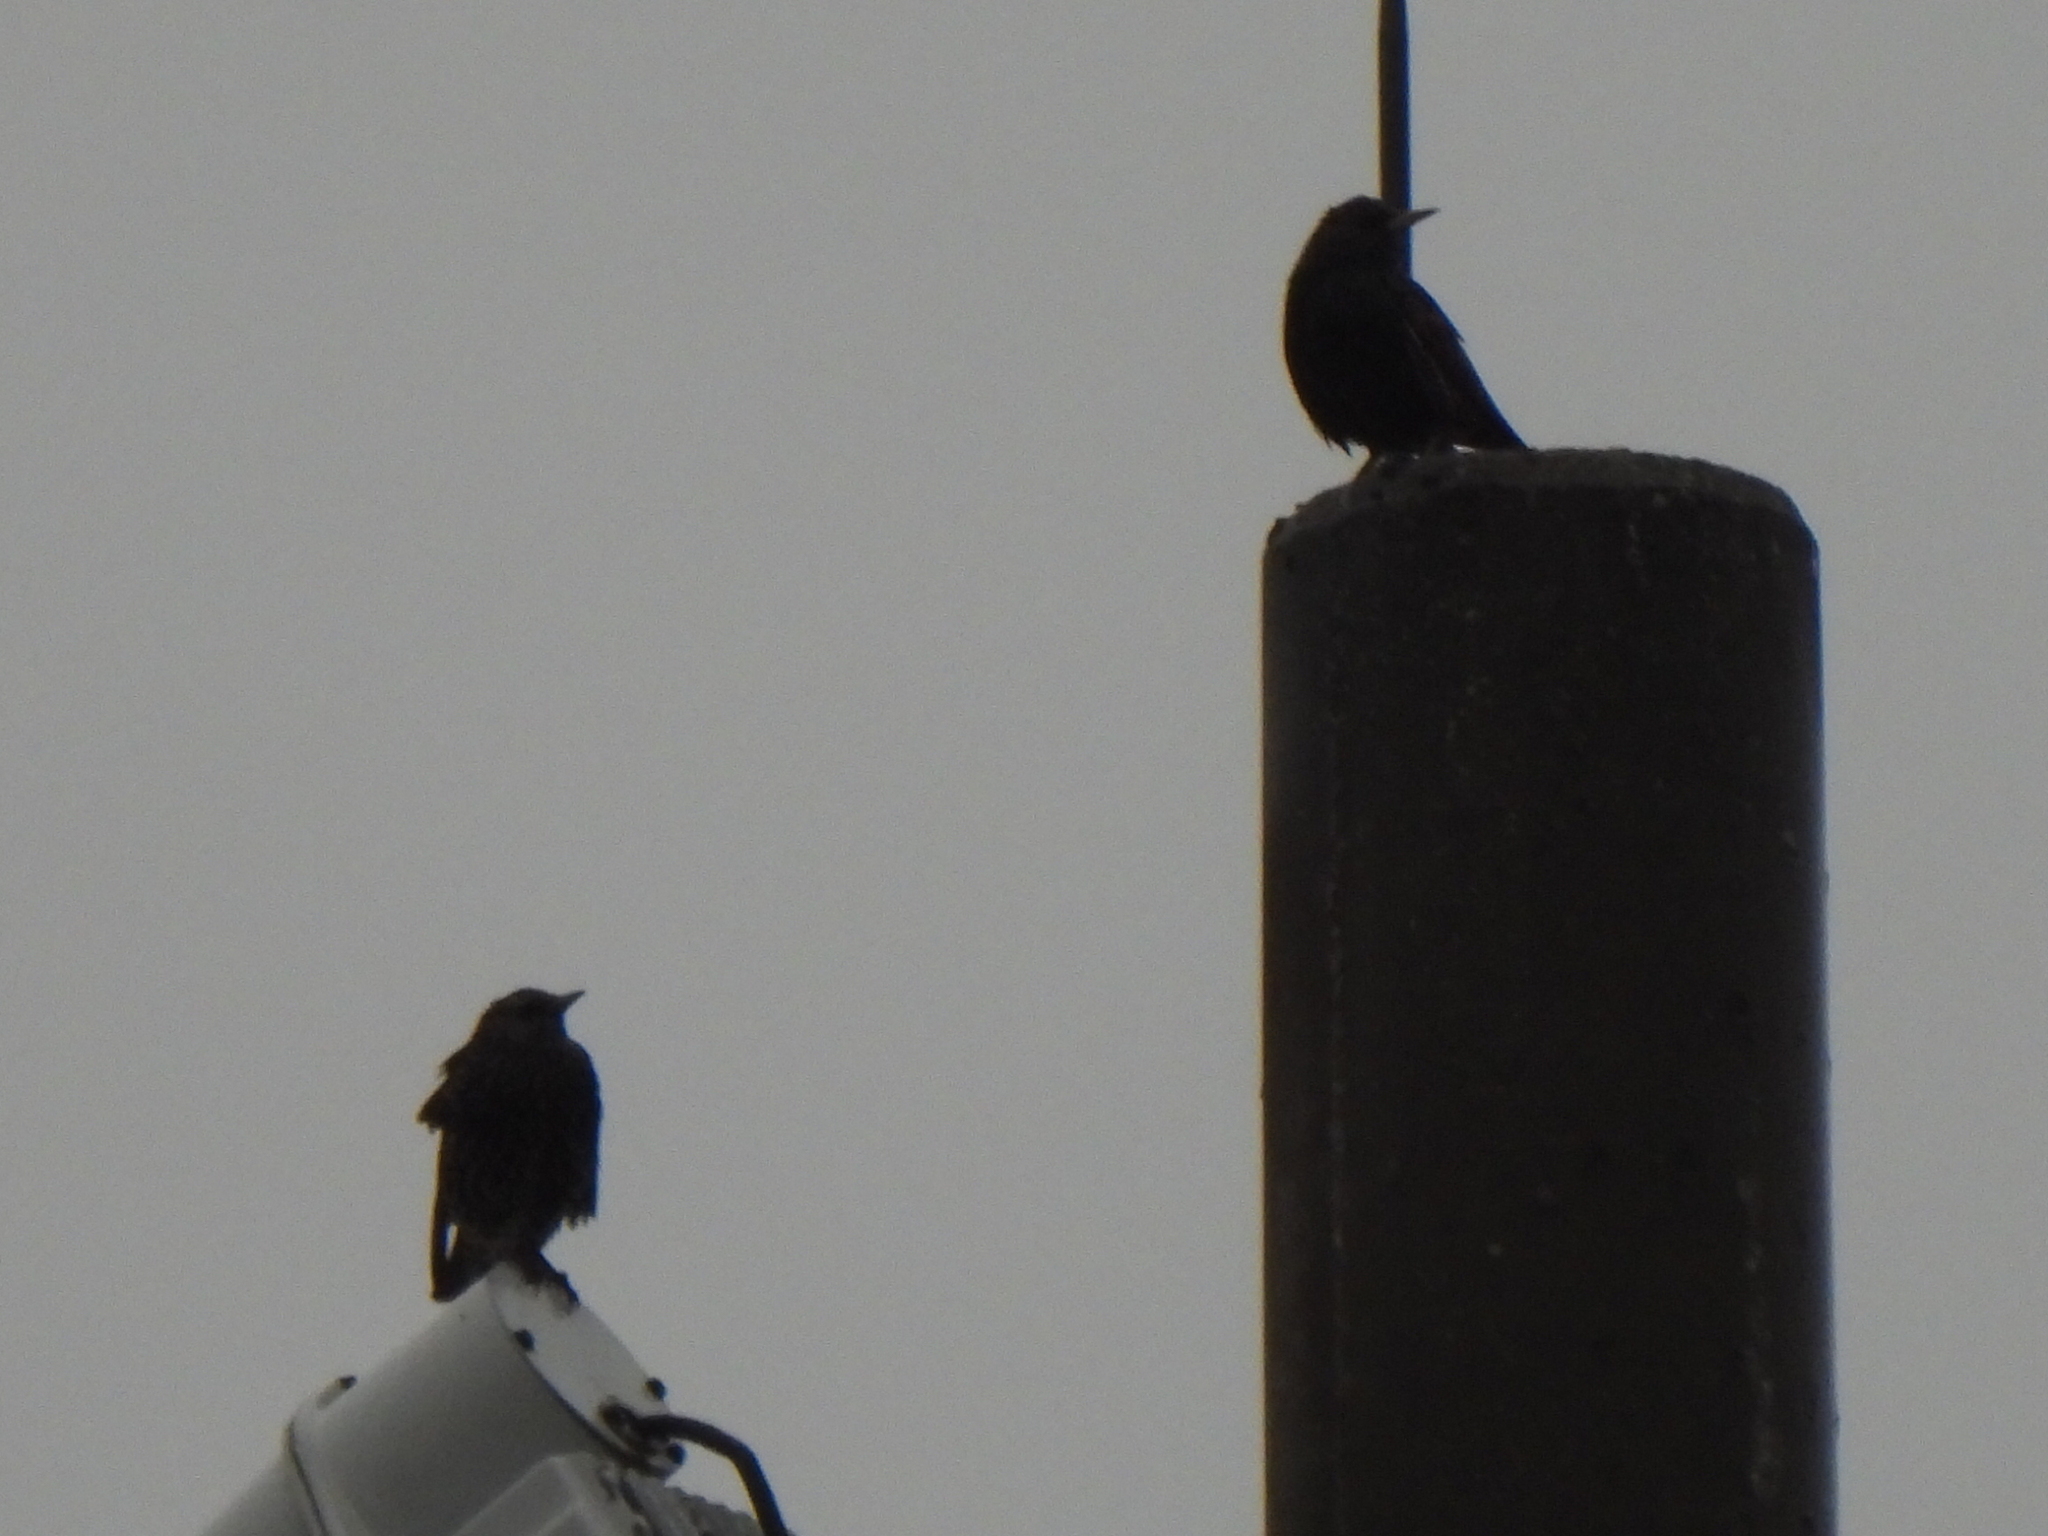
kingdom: Animalia
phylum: Chordata
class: Aves
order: Passeriformes
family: Sturnidae
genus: Sturnus
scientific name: Sturnus vulgaris
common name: Common starling
